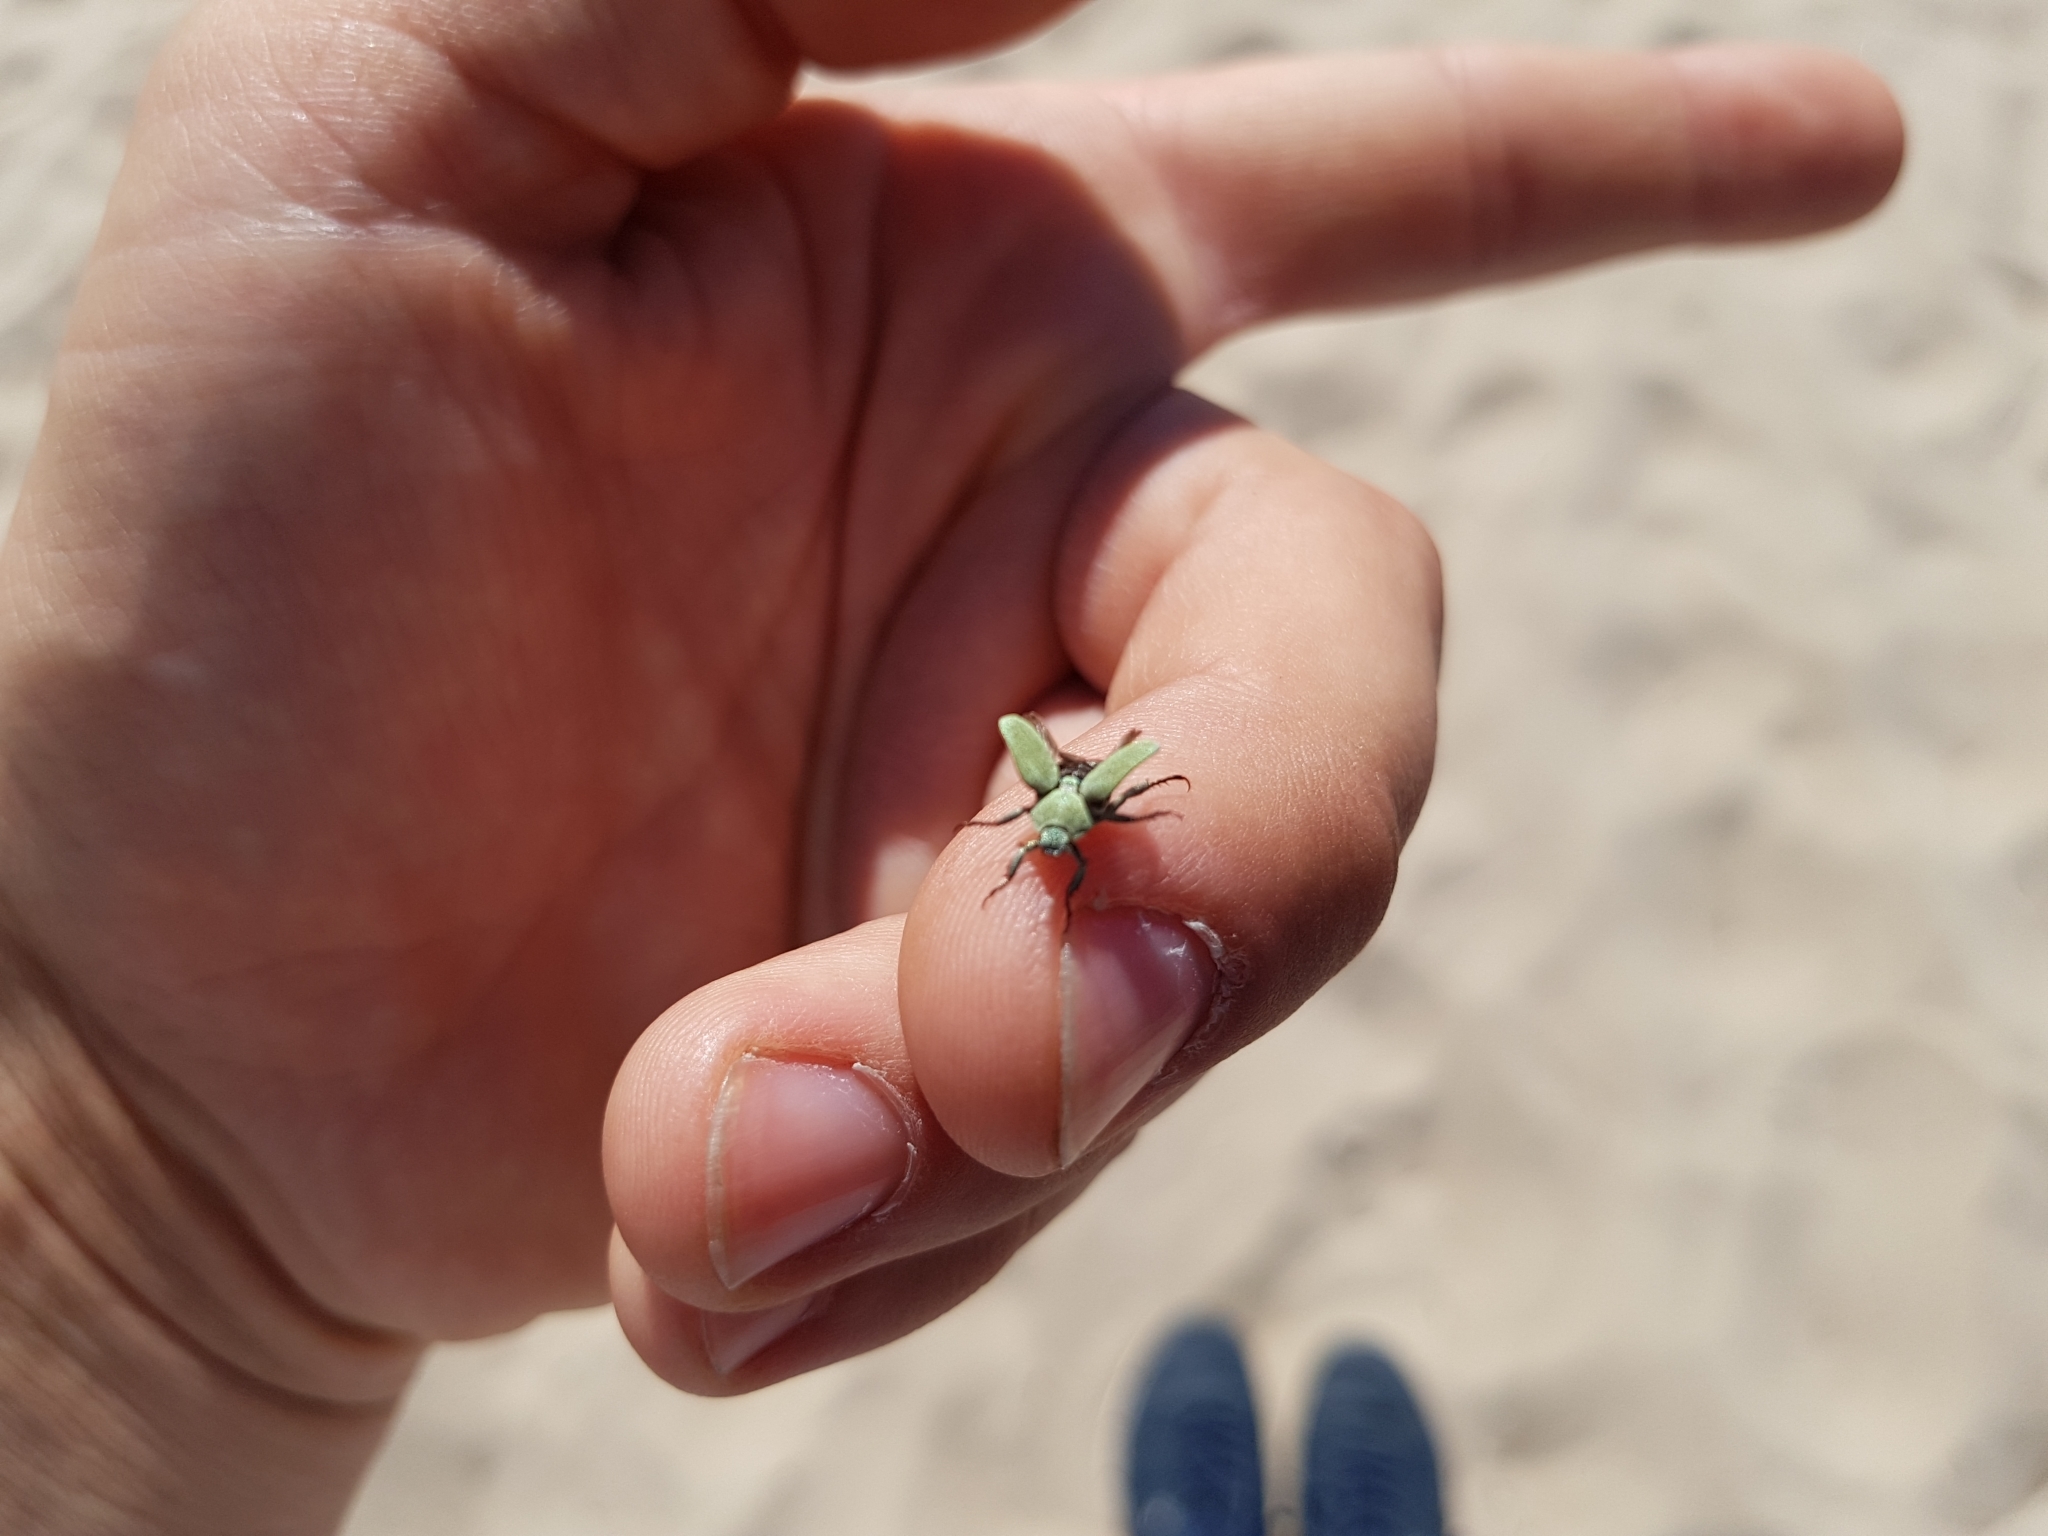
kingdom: Animalia
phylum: Arthropoda
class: Insecta
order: Coleoptera
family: Scarabaeidae
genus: Hoplia
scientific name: Hoplia parvula
